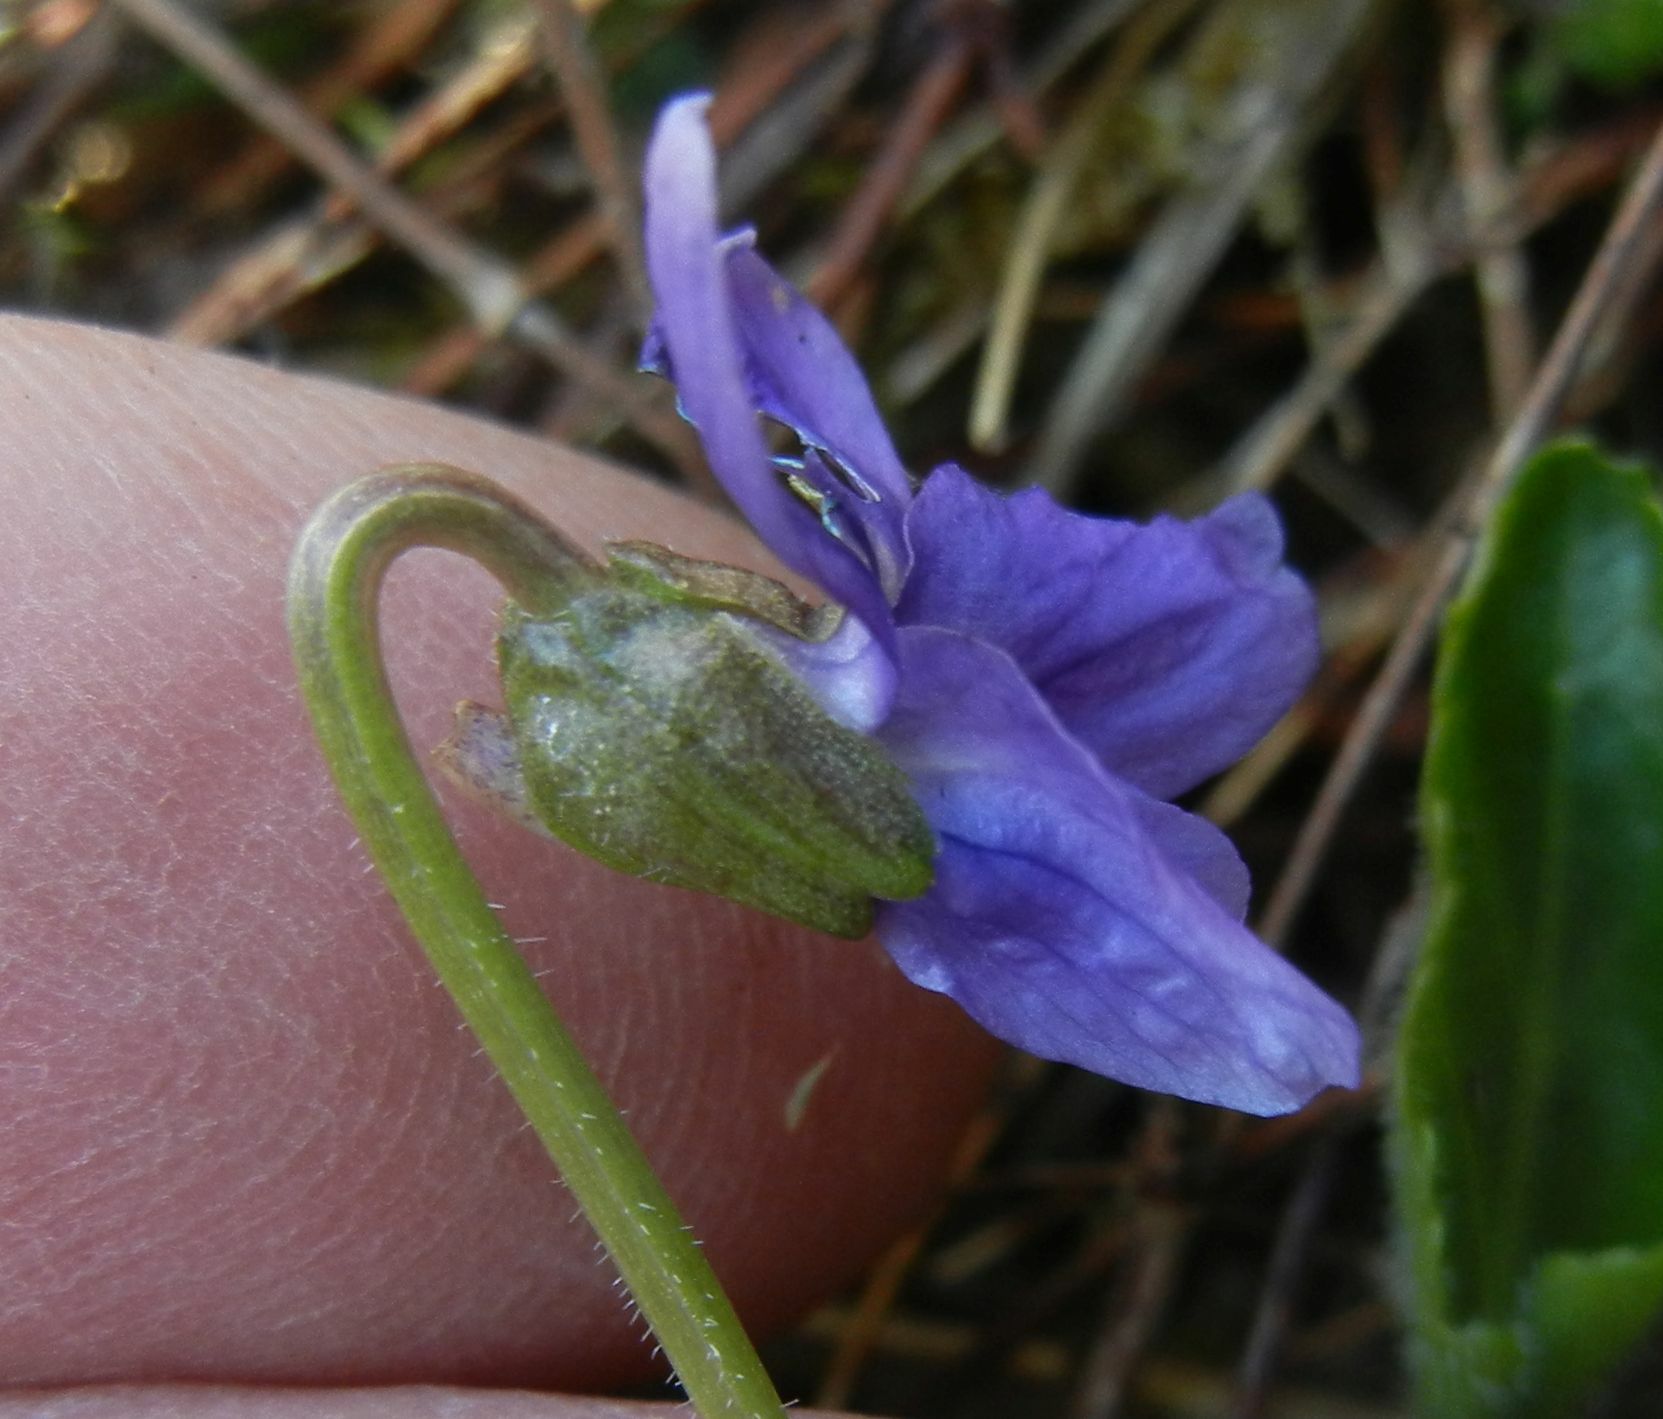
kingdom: Plantae
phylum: Tracheophyta
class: Magnoliopsida
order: Malpighiales
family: Violaceae
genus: Viola
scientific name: Viola hirta
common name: Hairy violet
